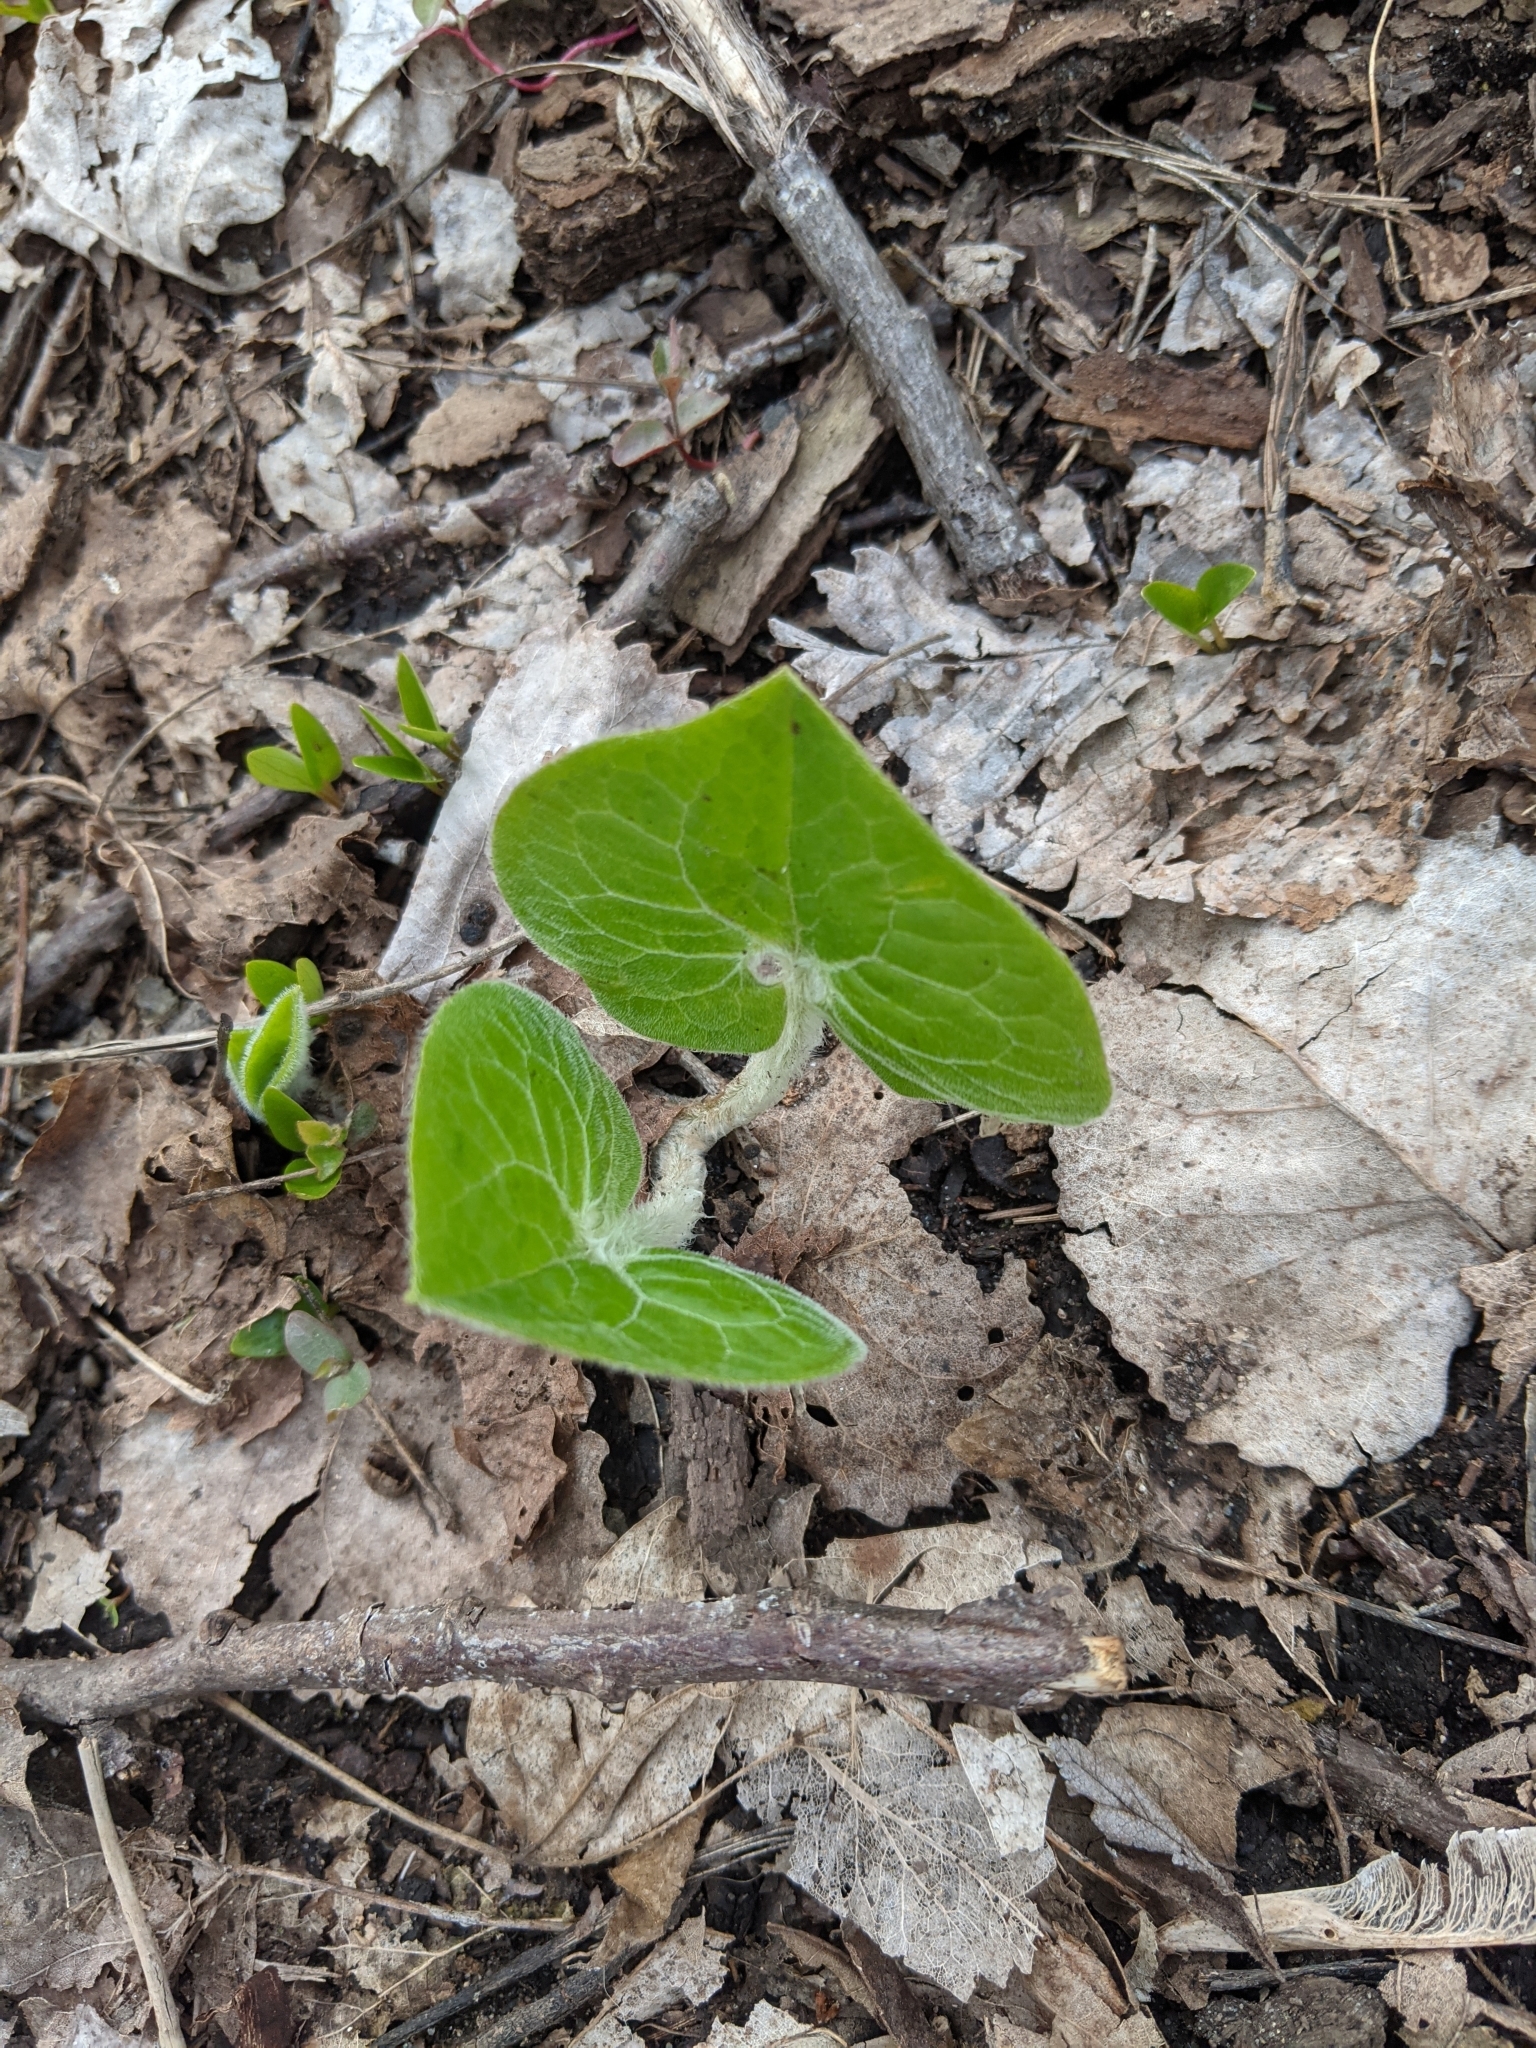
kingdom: Plantae
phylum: Tracheophyta
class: Magnoliopsida
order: Piperales
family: Aristolochiaceae
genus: Asarum
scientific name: Asarum canadense
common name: Wild ginger
